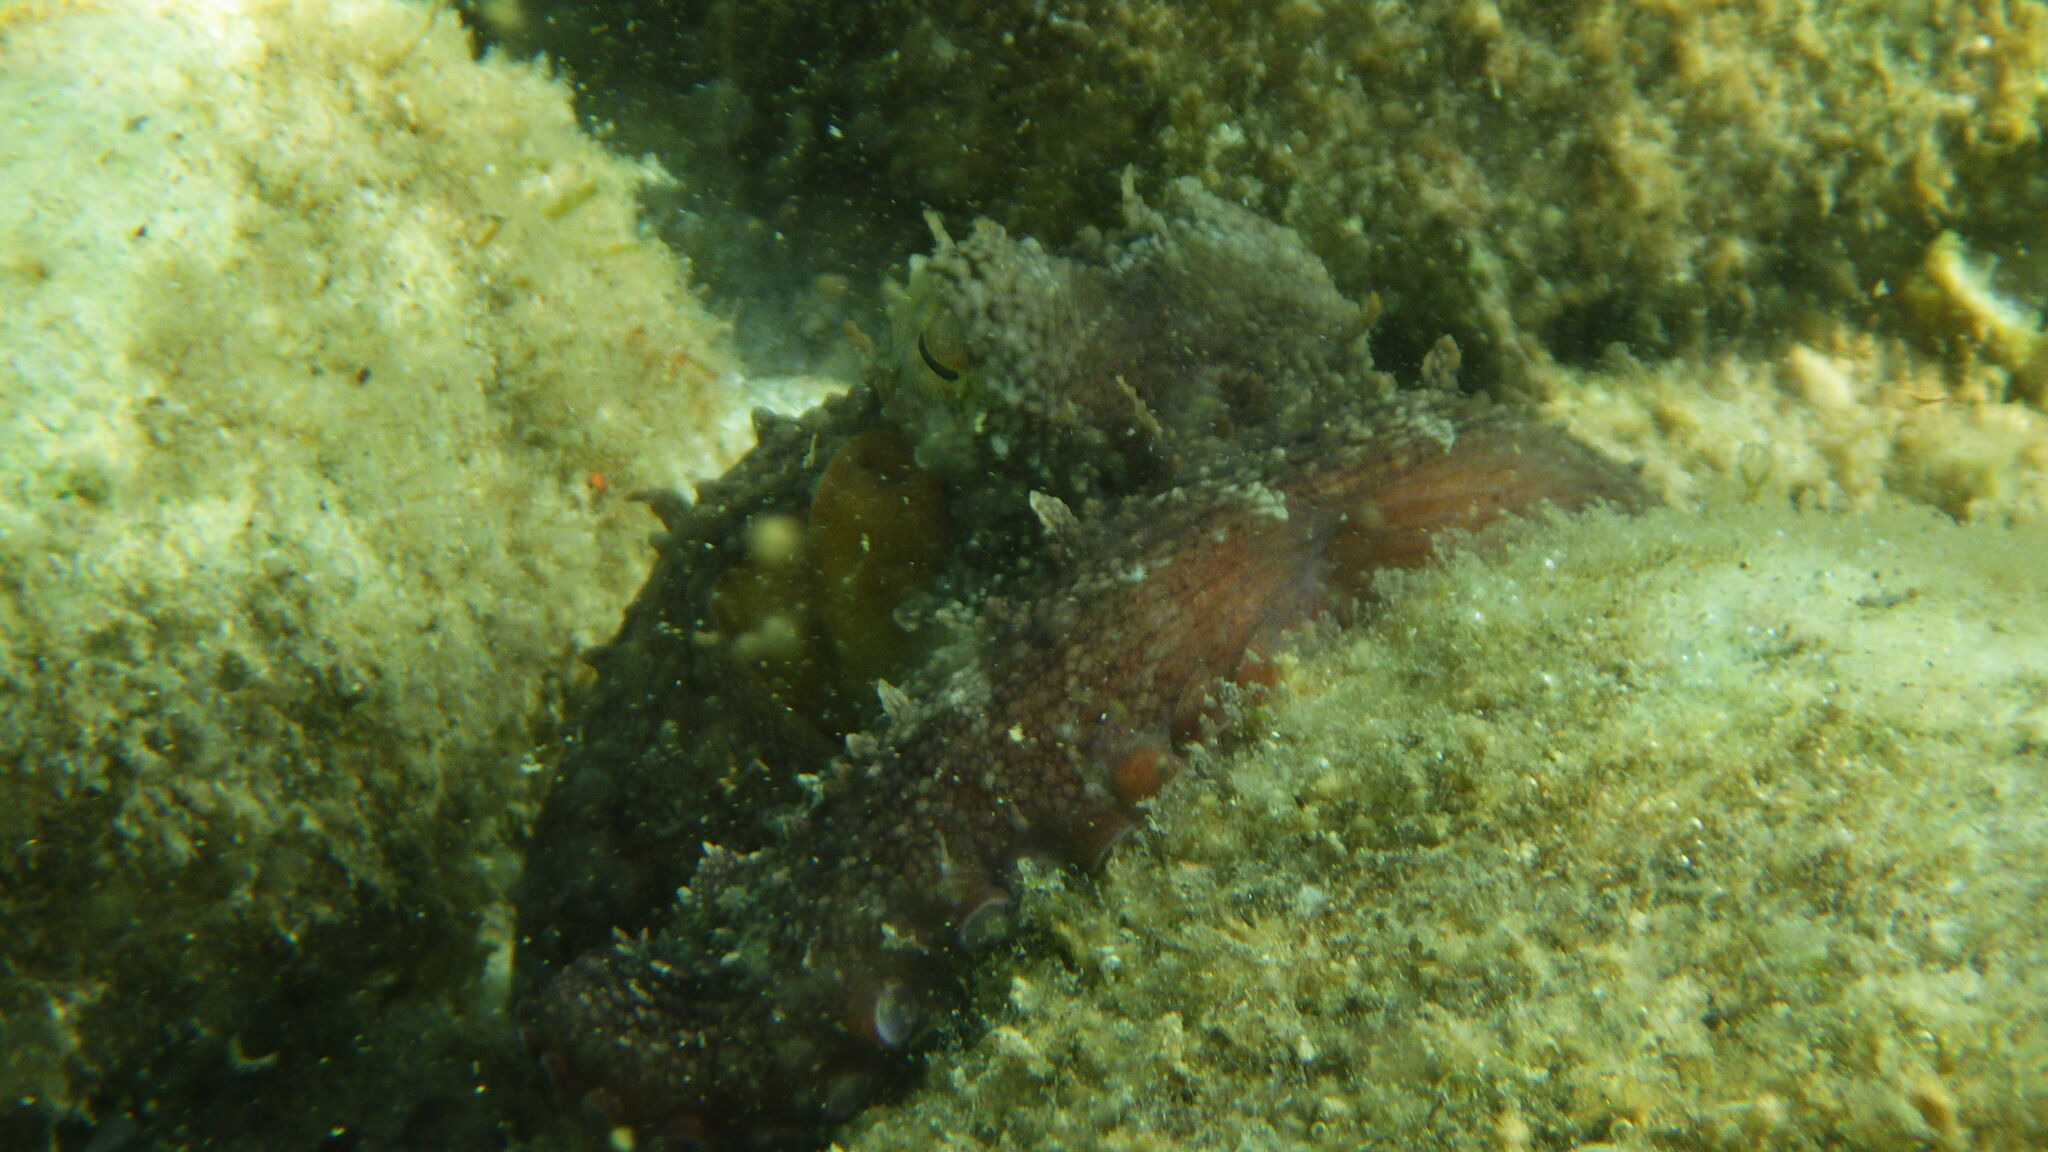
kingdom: Animalia
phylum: Mollusca
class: Cephalopoda
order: Octopoda
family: Octopodidae
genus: Octopus
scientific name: Octopus vulgaris
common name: Common octopus
